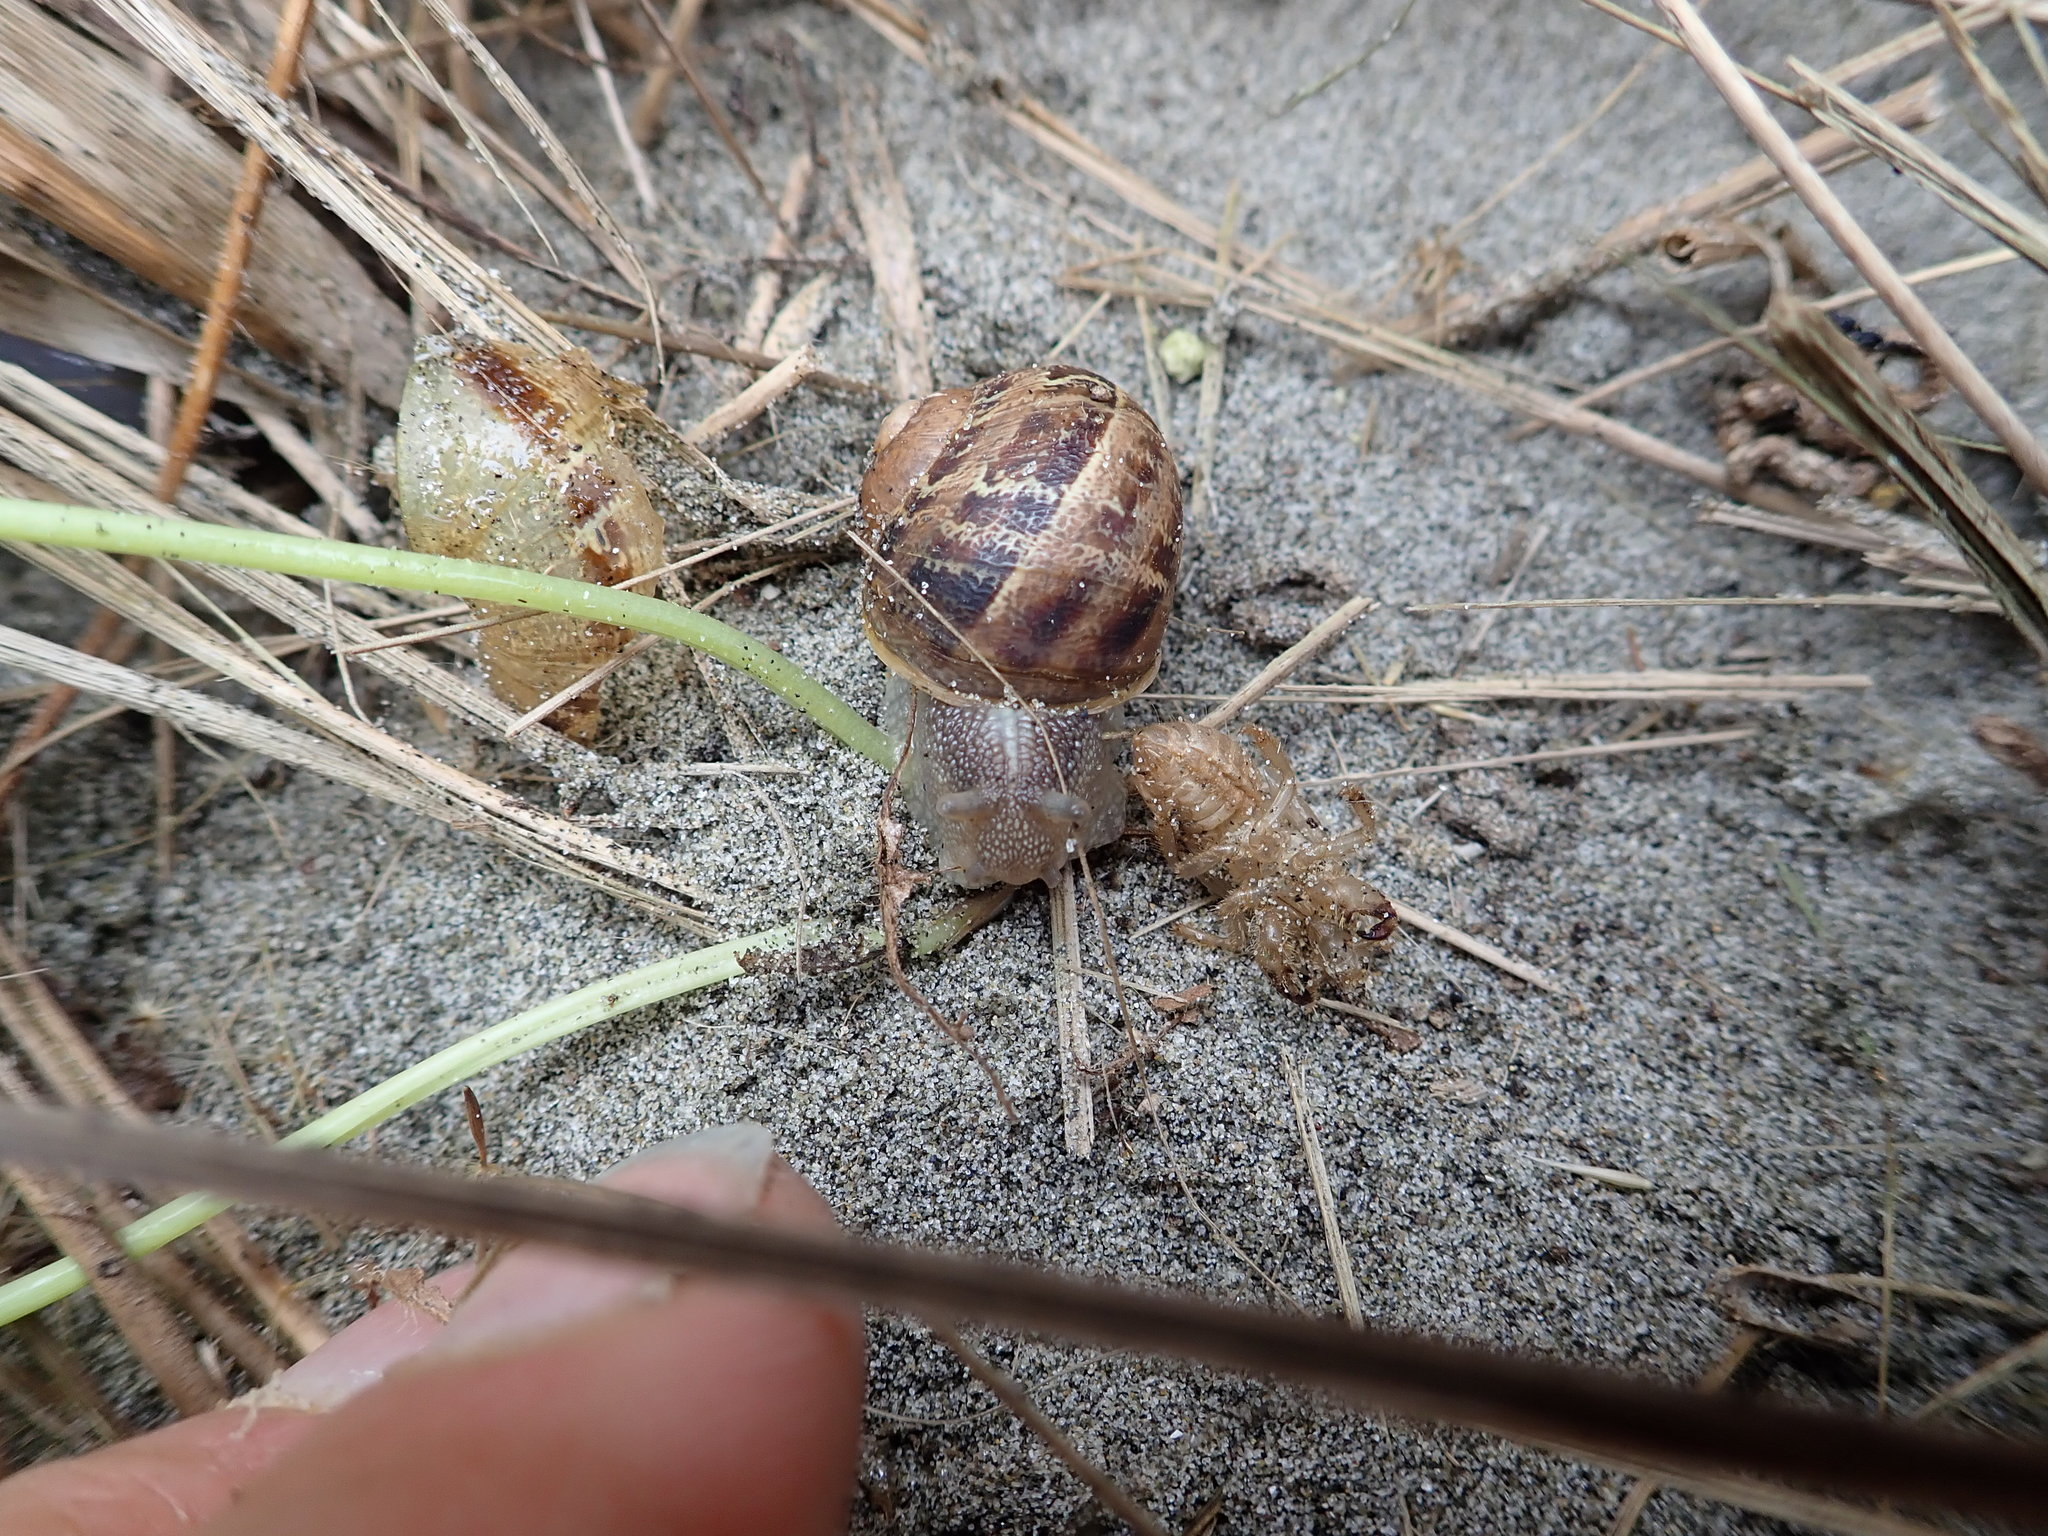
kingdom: Animalia
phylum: Mollusca
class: Gastropoda
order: Stylommatophora
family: Helicidae
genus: Cornu
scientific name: Cornu aspersum
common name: Brown garden snail
